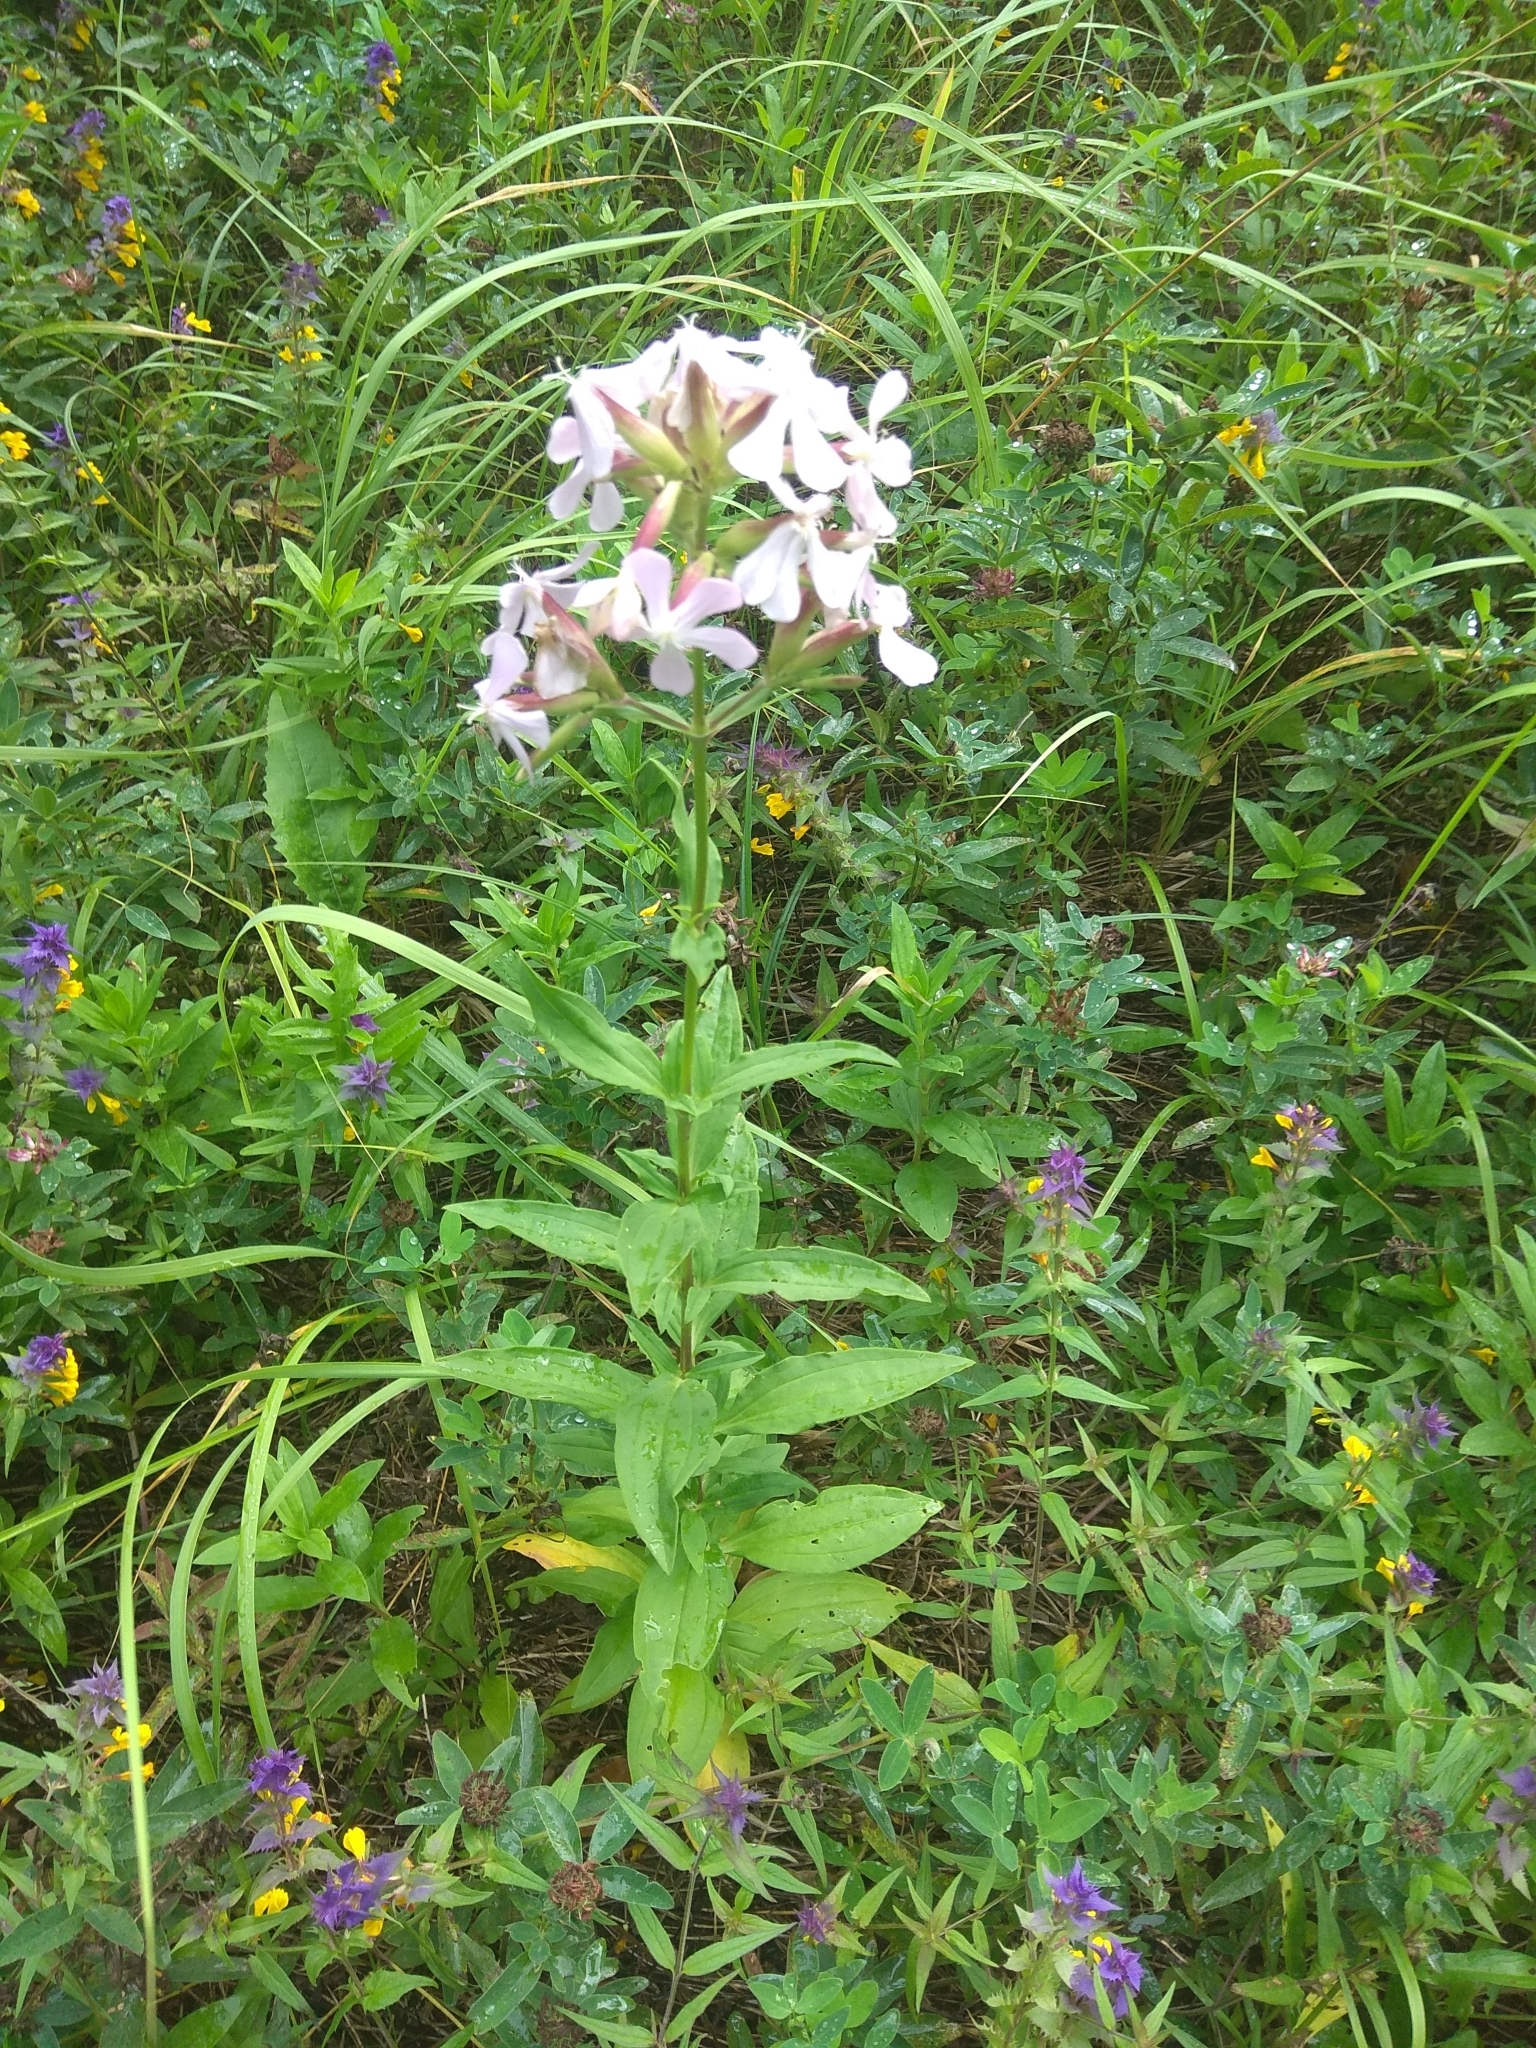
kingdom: Plantae
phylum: Tracheophyta
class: Magnoliopsida
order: Caryophyllales
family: Caryophyllaceae
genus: Saponaria
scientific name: Saponaria officinalis
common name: Soapwort
